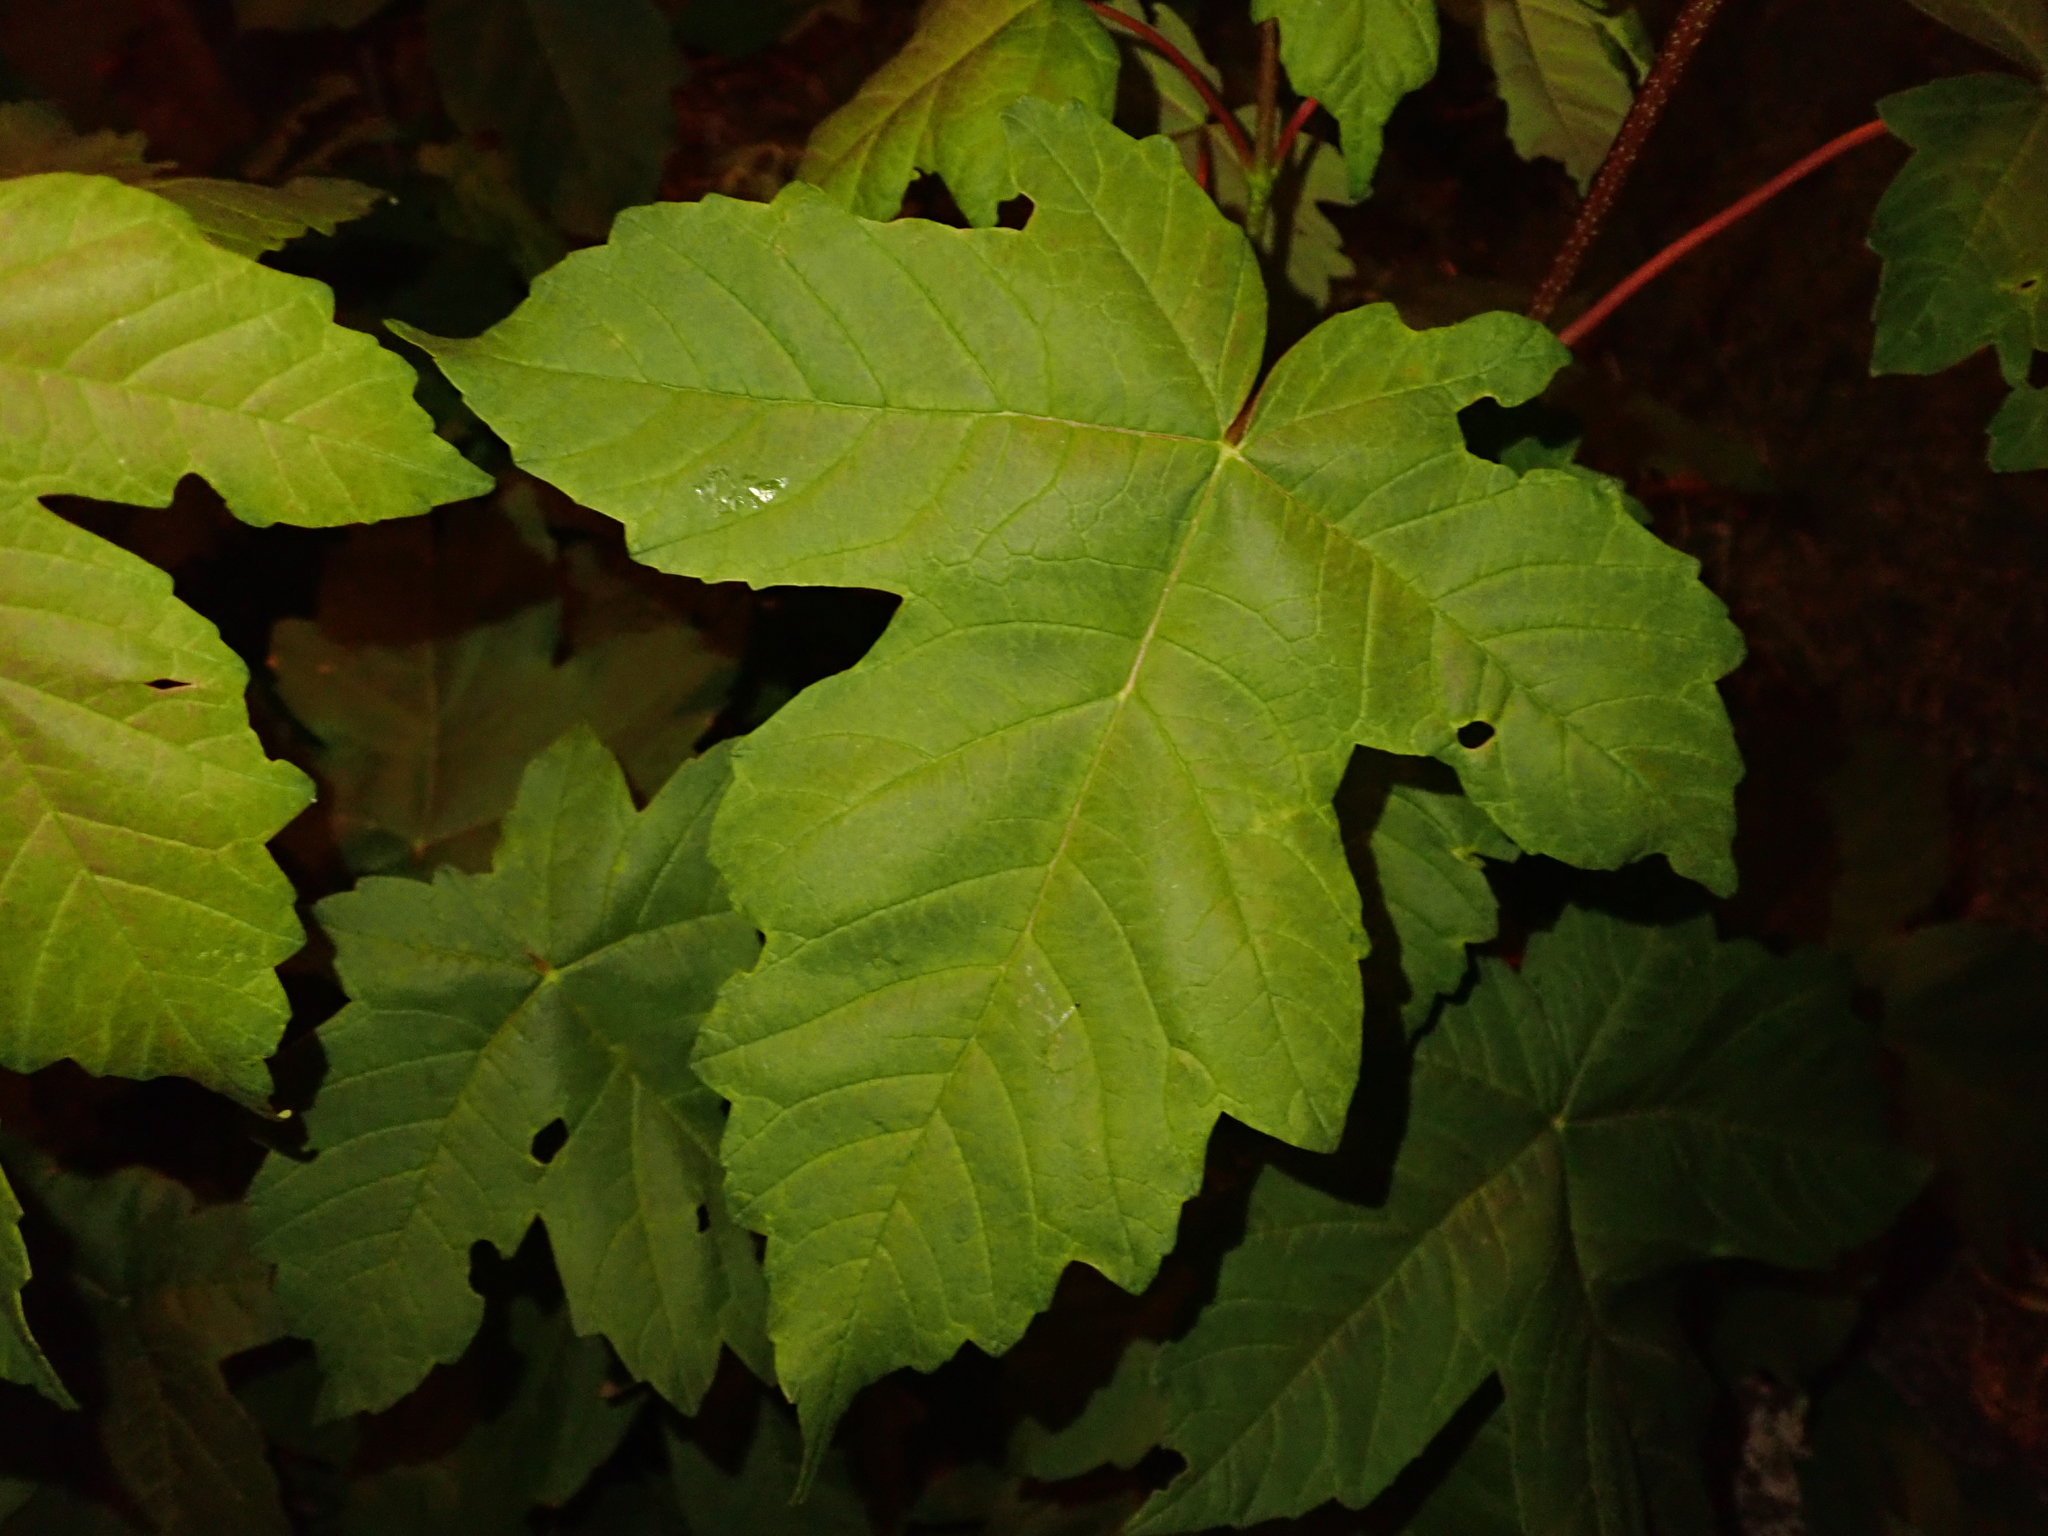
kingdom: Plantae
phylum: Tracheophyta
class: Magnoliopsida
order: Sapindales
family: Sapindaceae
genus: Acer
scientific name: Acer pseudoplatanus
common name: Sycamore
